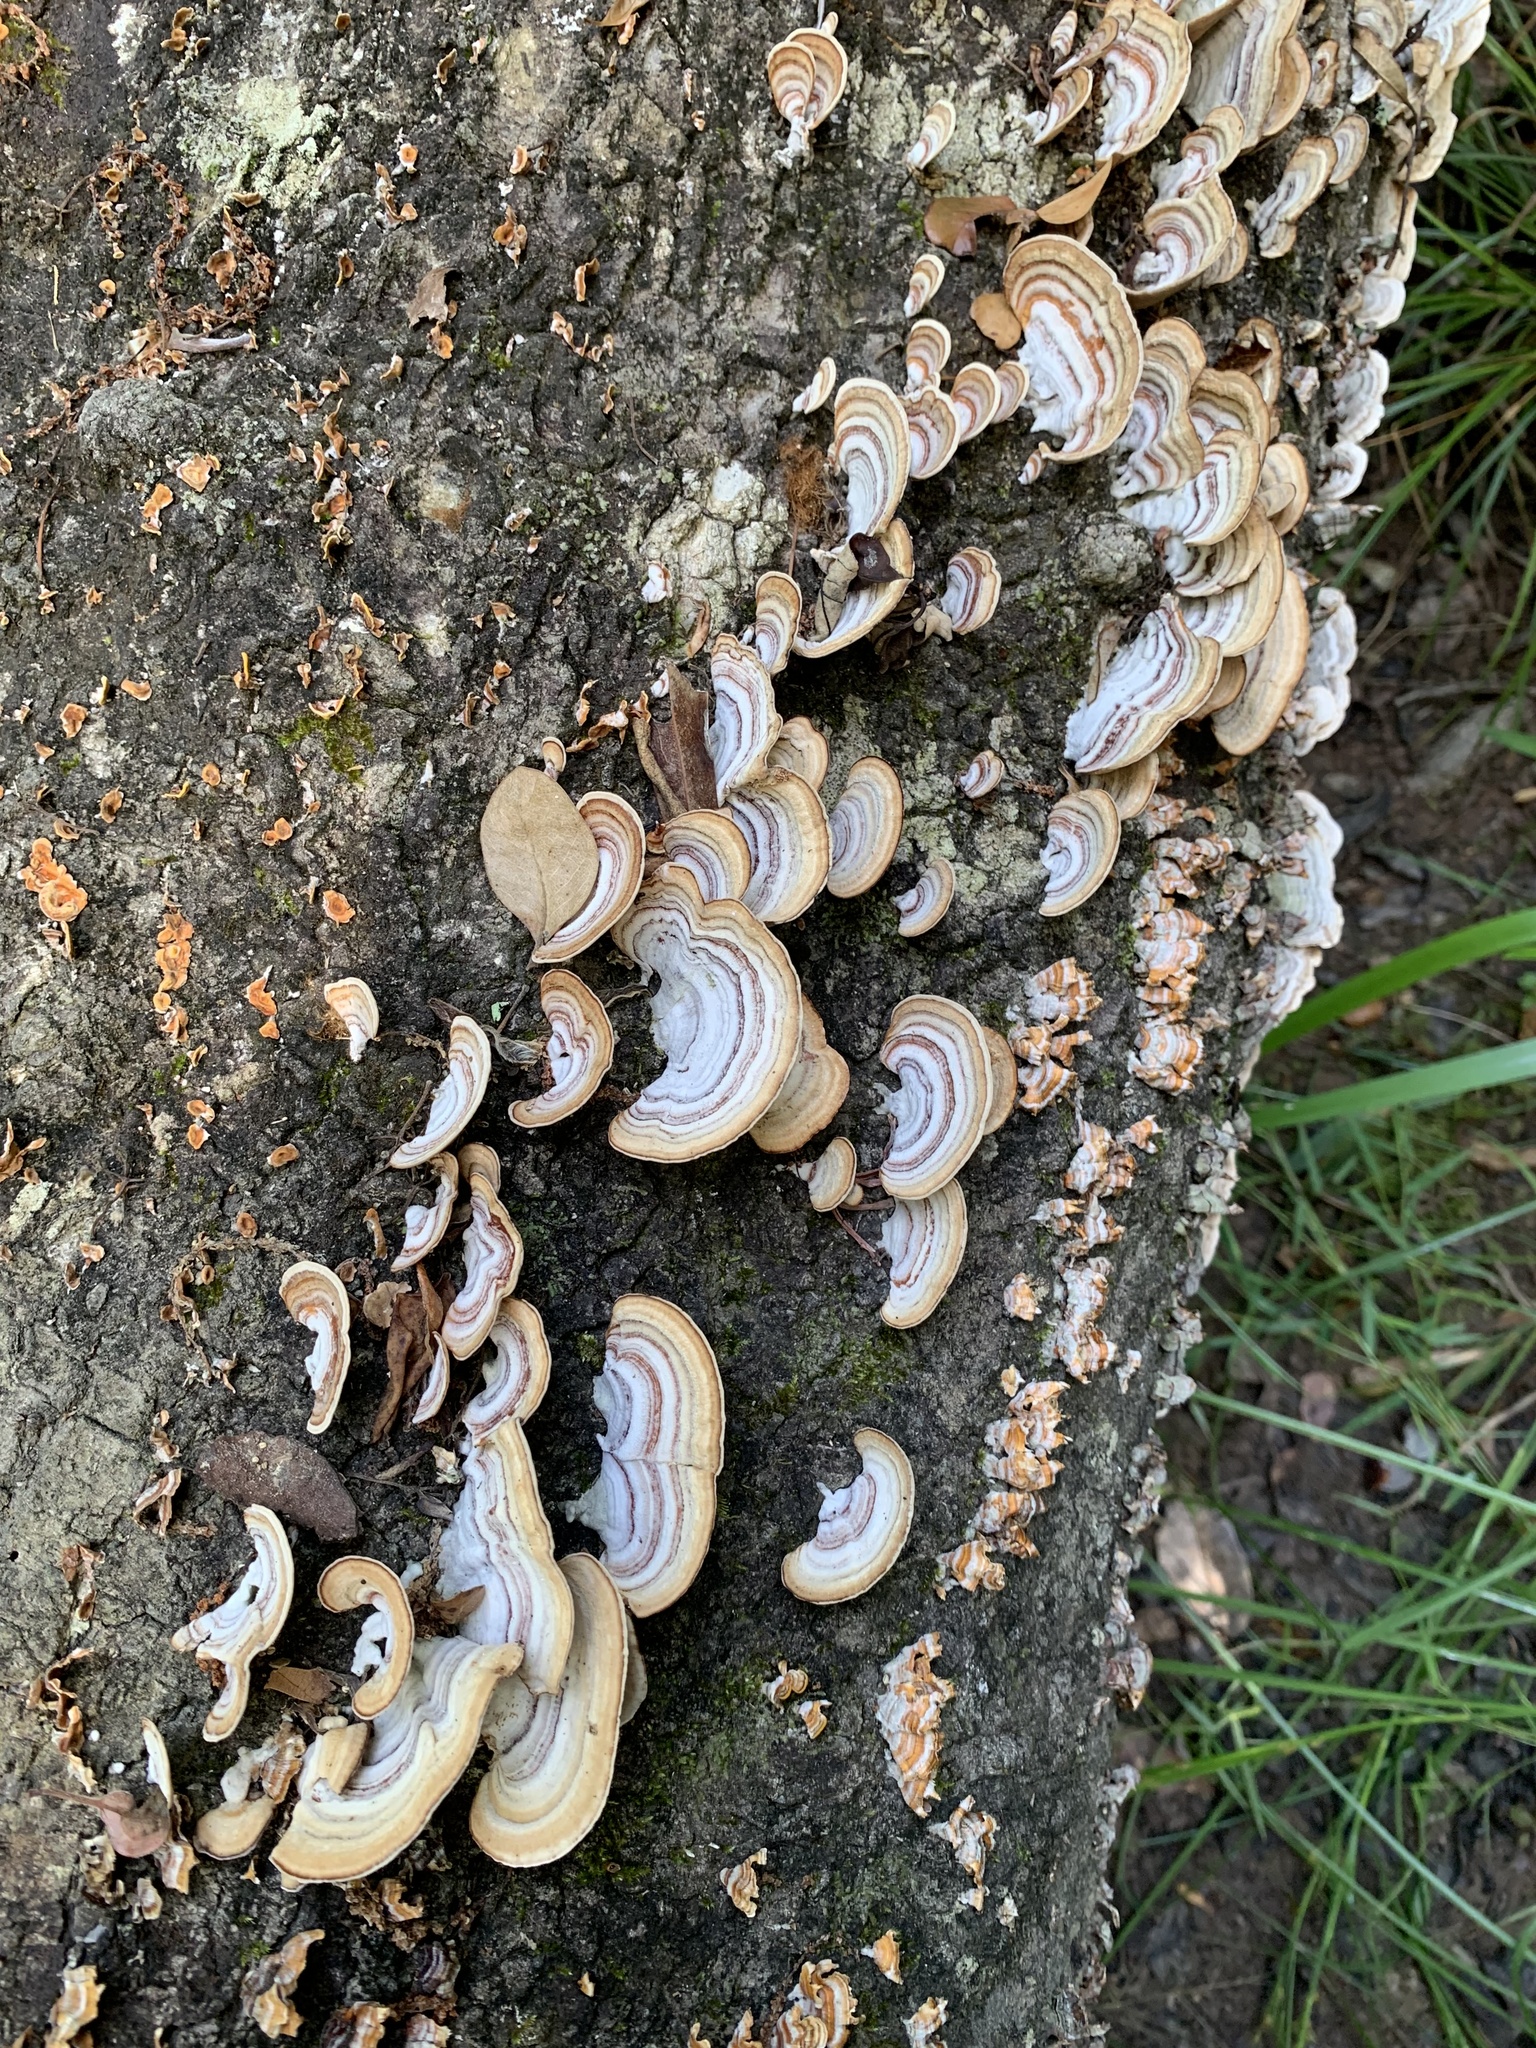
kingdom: Fungi
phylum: Basidiomycota
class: Agaricomycetes
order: Russulales
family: Stereaceae
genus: Stereum
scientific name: Stereum lobatum
